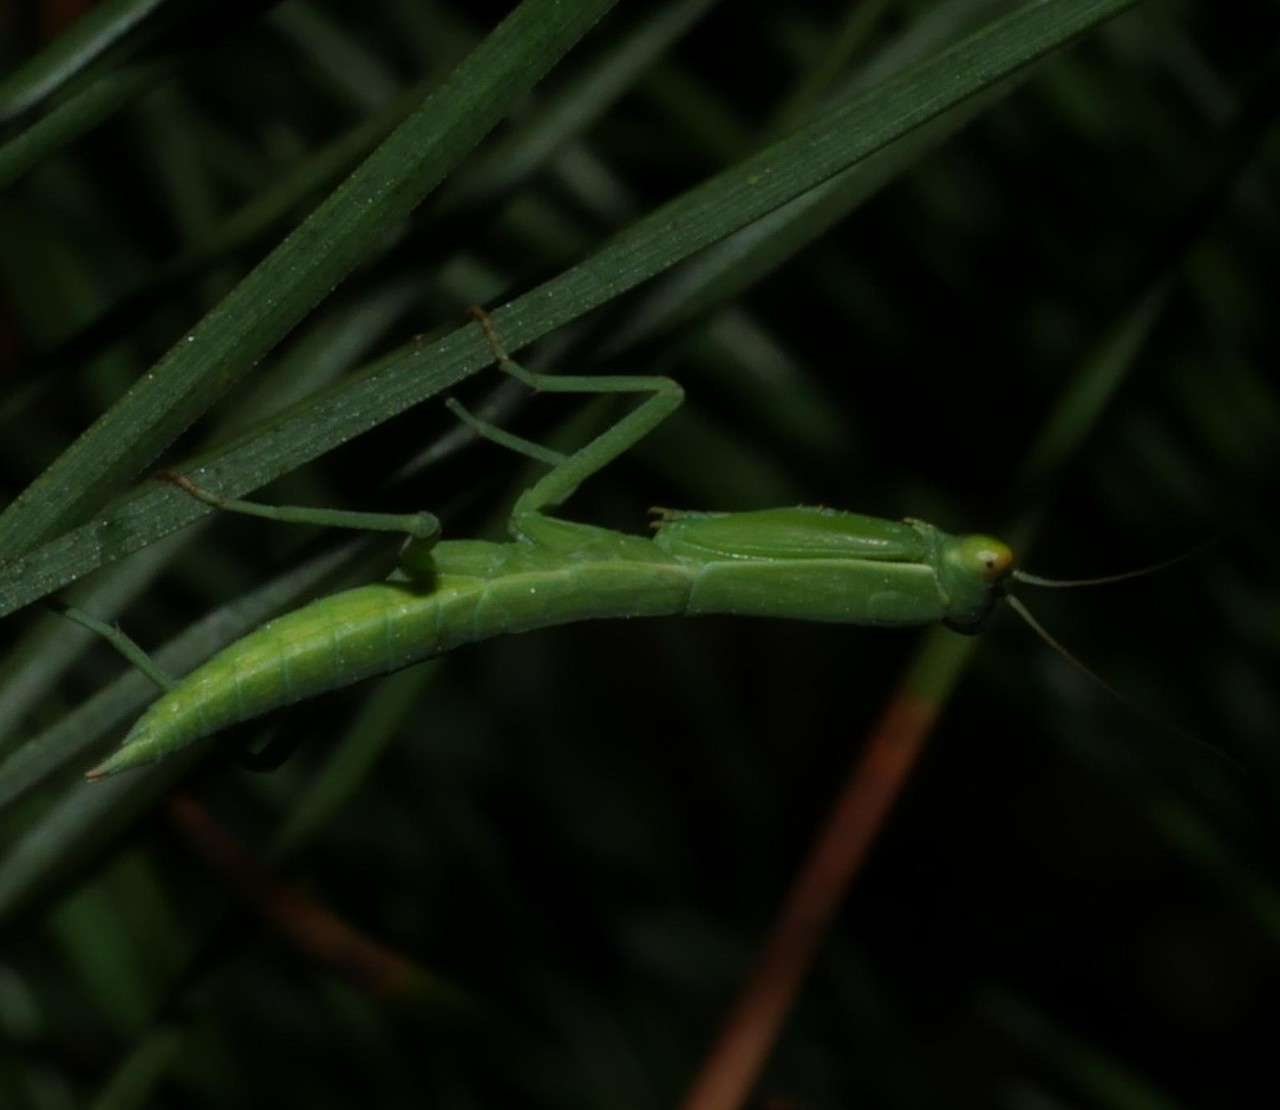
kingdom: Animalia
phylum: Arthropoda
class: Insecta
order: Mantodea
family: Mantidae
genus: Orthodera
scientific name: Orthodera ministralis
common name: Mantis
